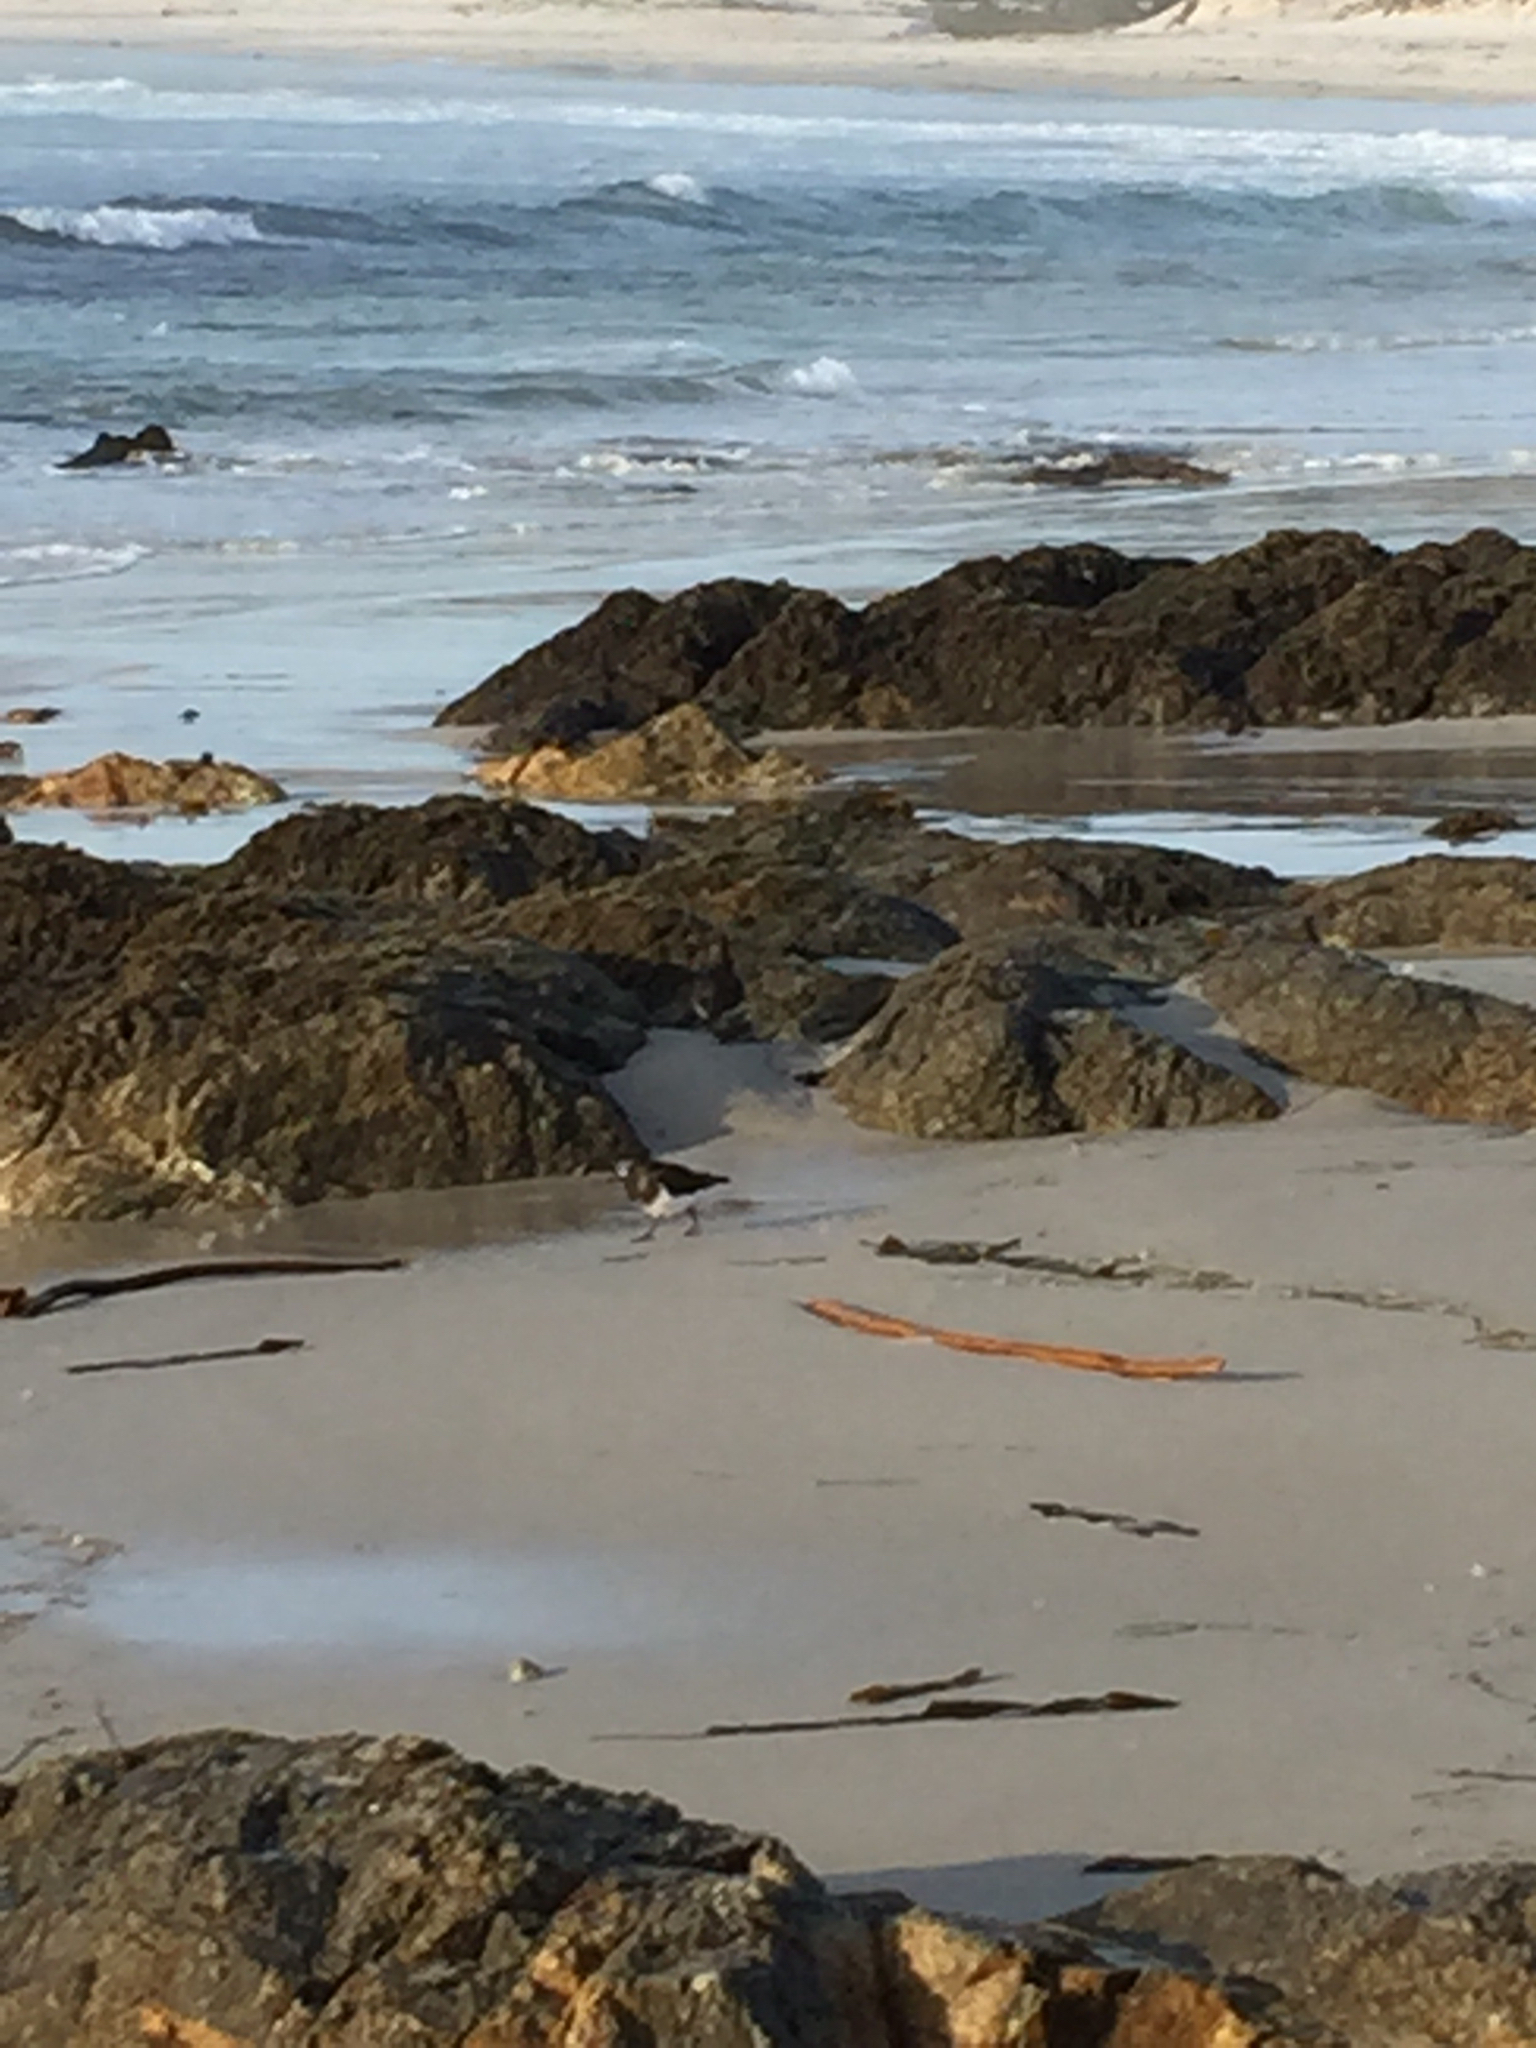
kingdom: Animalia
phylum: Chordata
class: Aves
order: Charadriiformes
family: Scolopacidae
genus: Arenaria
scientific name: Arenaria melanocephala
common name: Black turnstone
